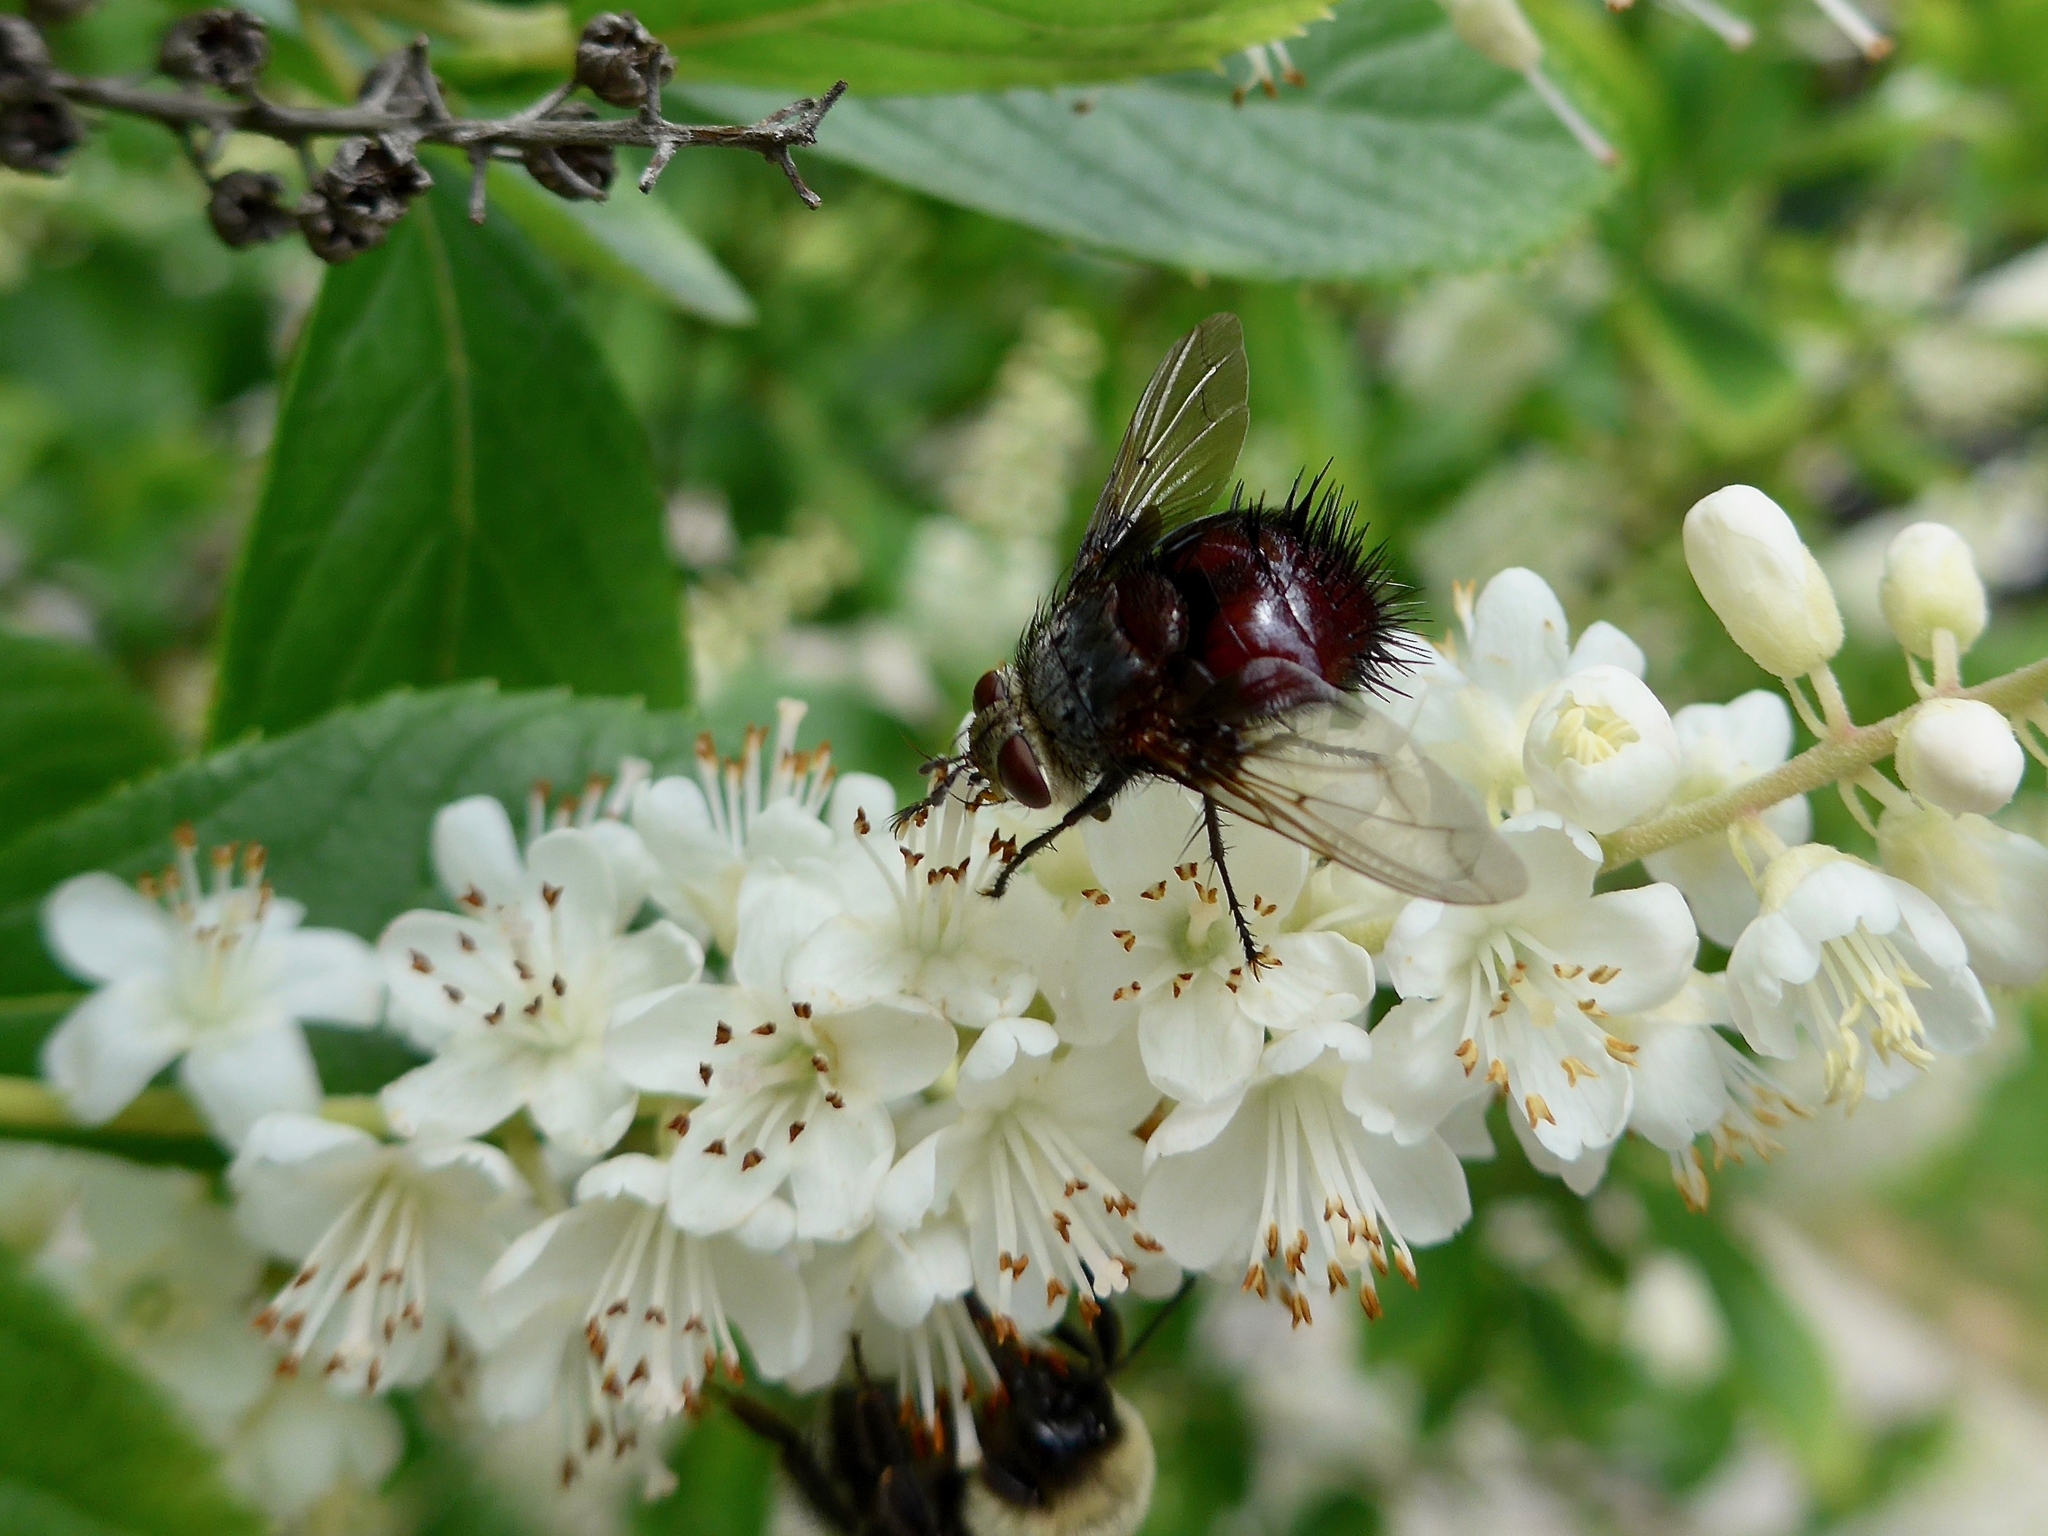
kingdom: Animalia
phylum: Arthropoda
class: Insecta
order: Diptera
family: Tachinidae
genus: Juriniopsis
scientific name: Juriniopsis adusta
